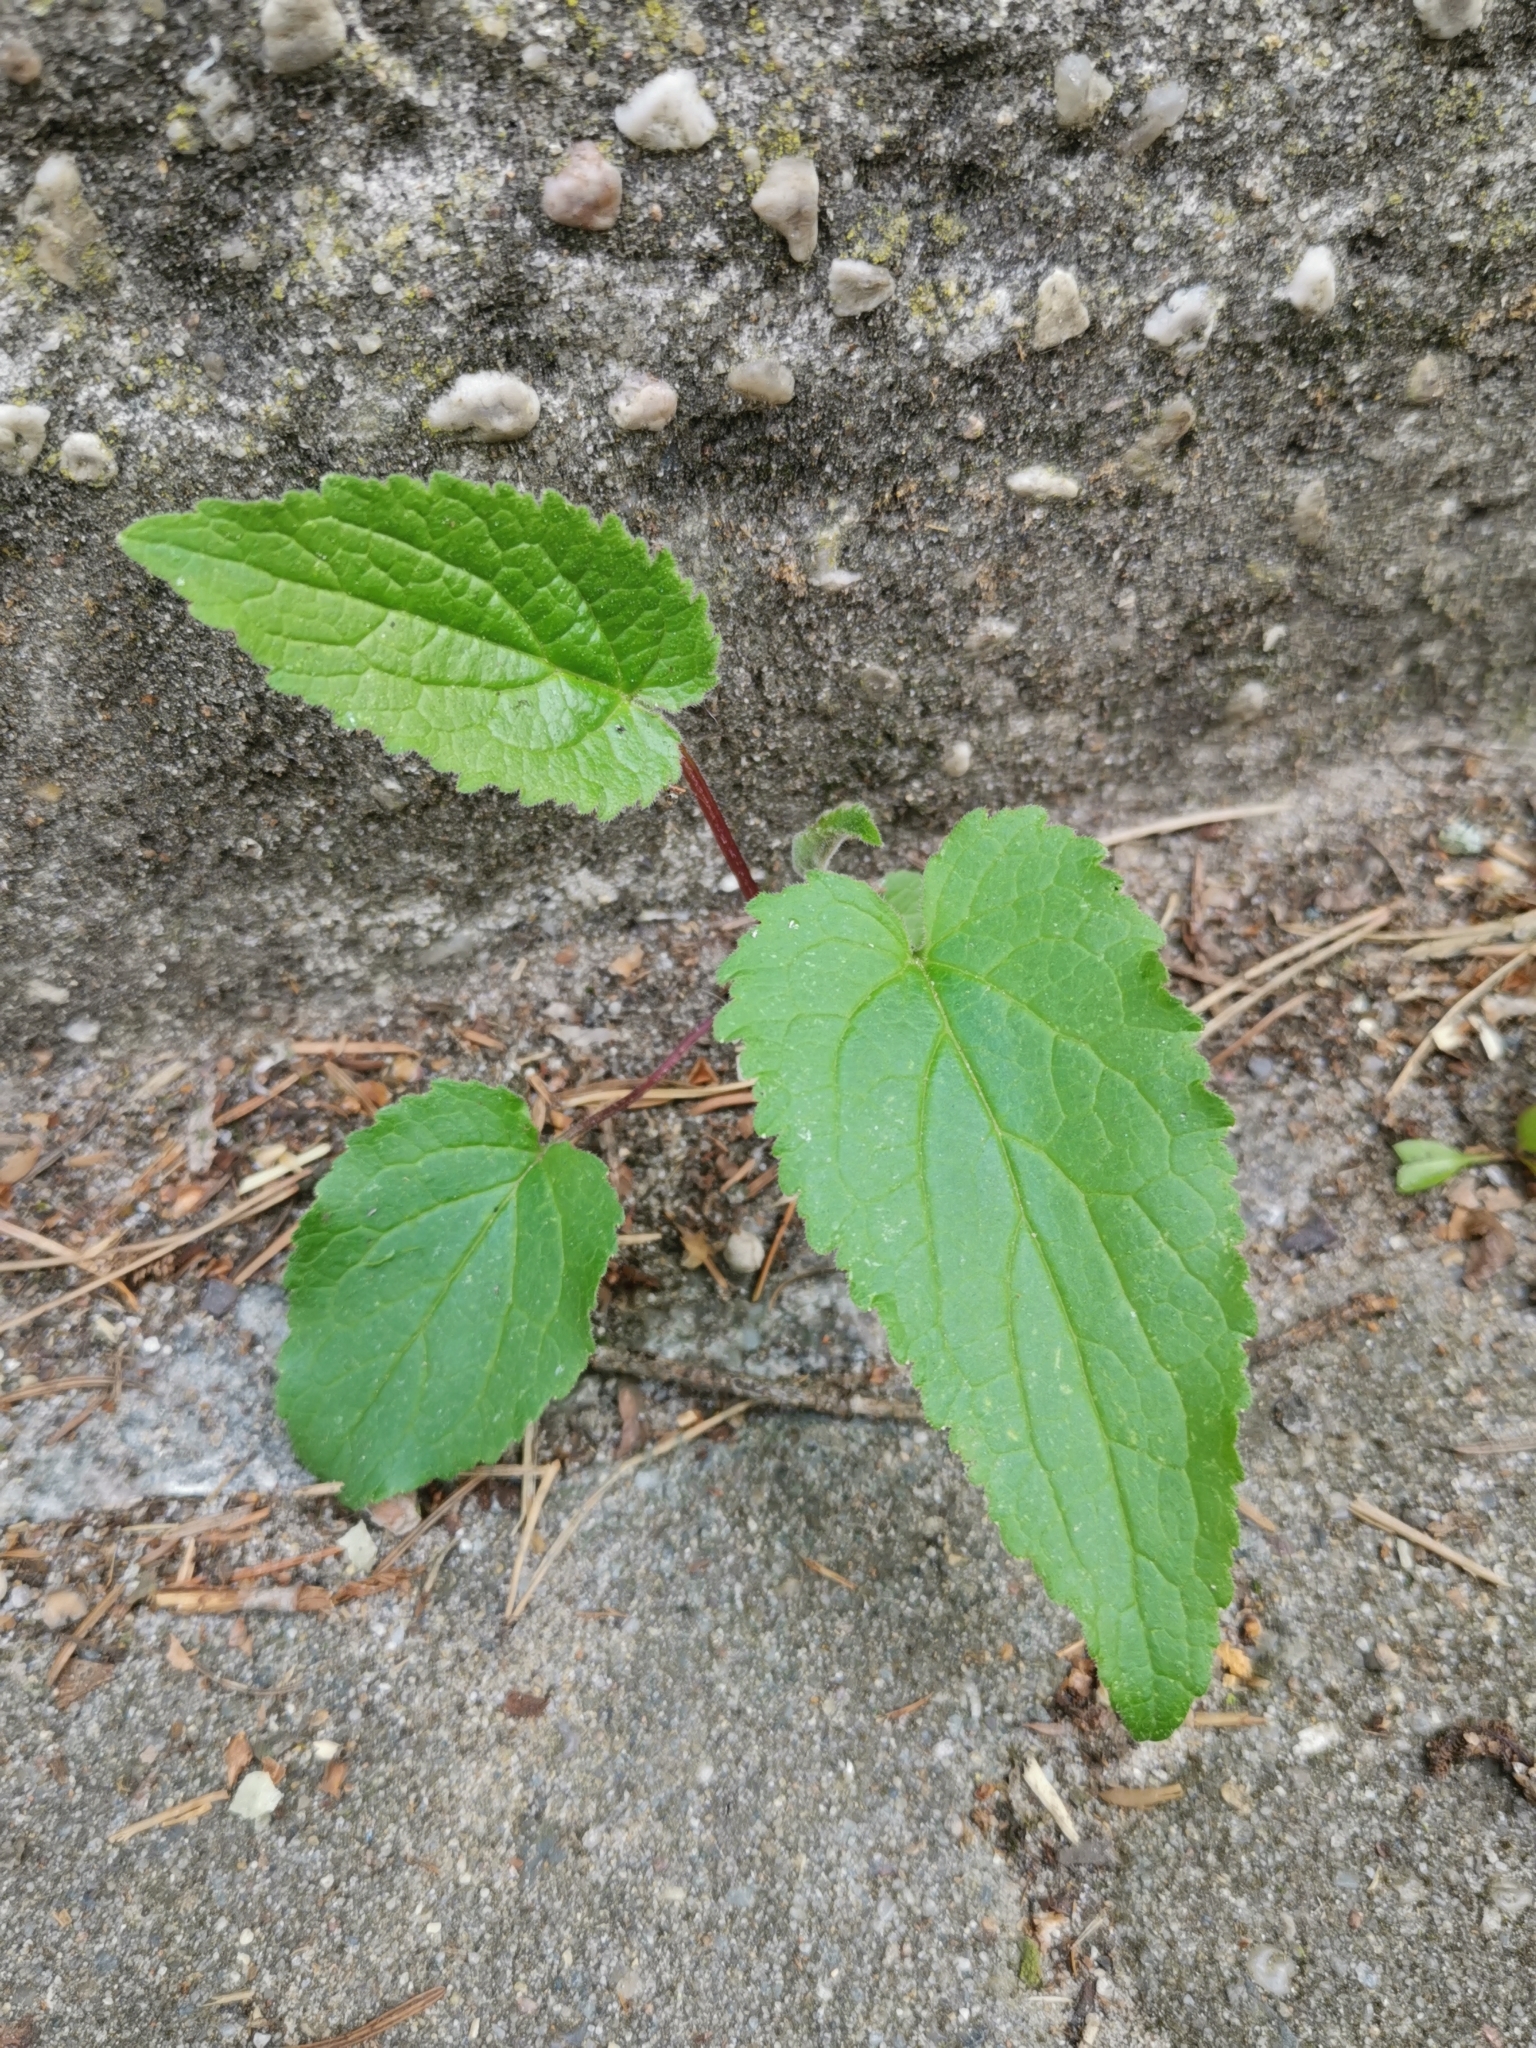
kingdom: Plantae
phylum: Tracheophyta
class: Magnoliopsida
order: Asterales
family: Campanulaceae
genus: Campanula
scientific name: Campanula rapunculoides
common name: Creeping bellflower
